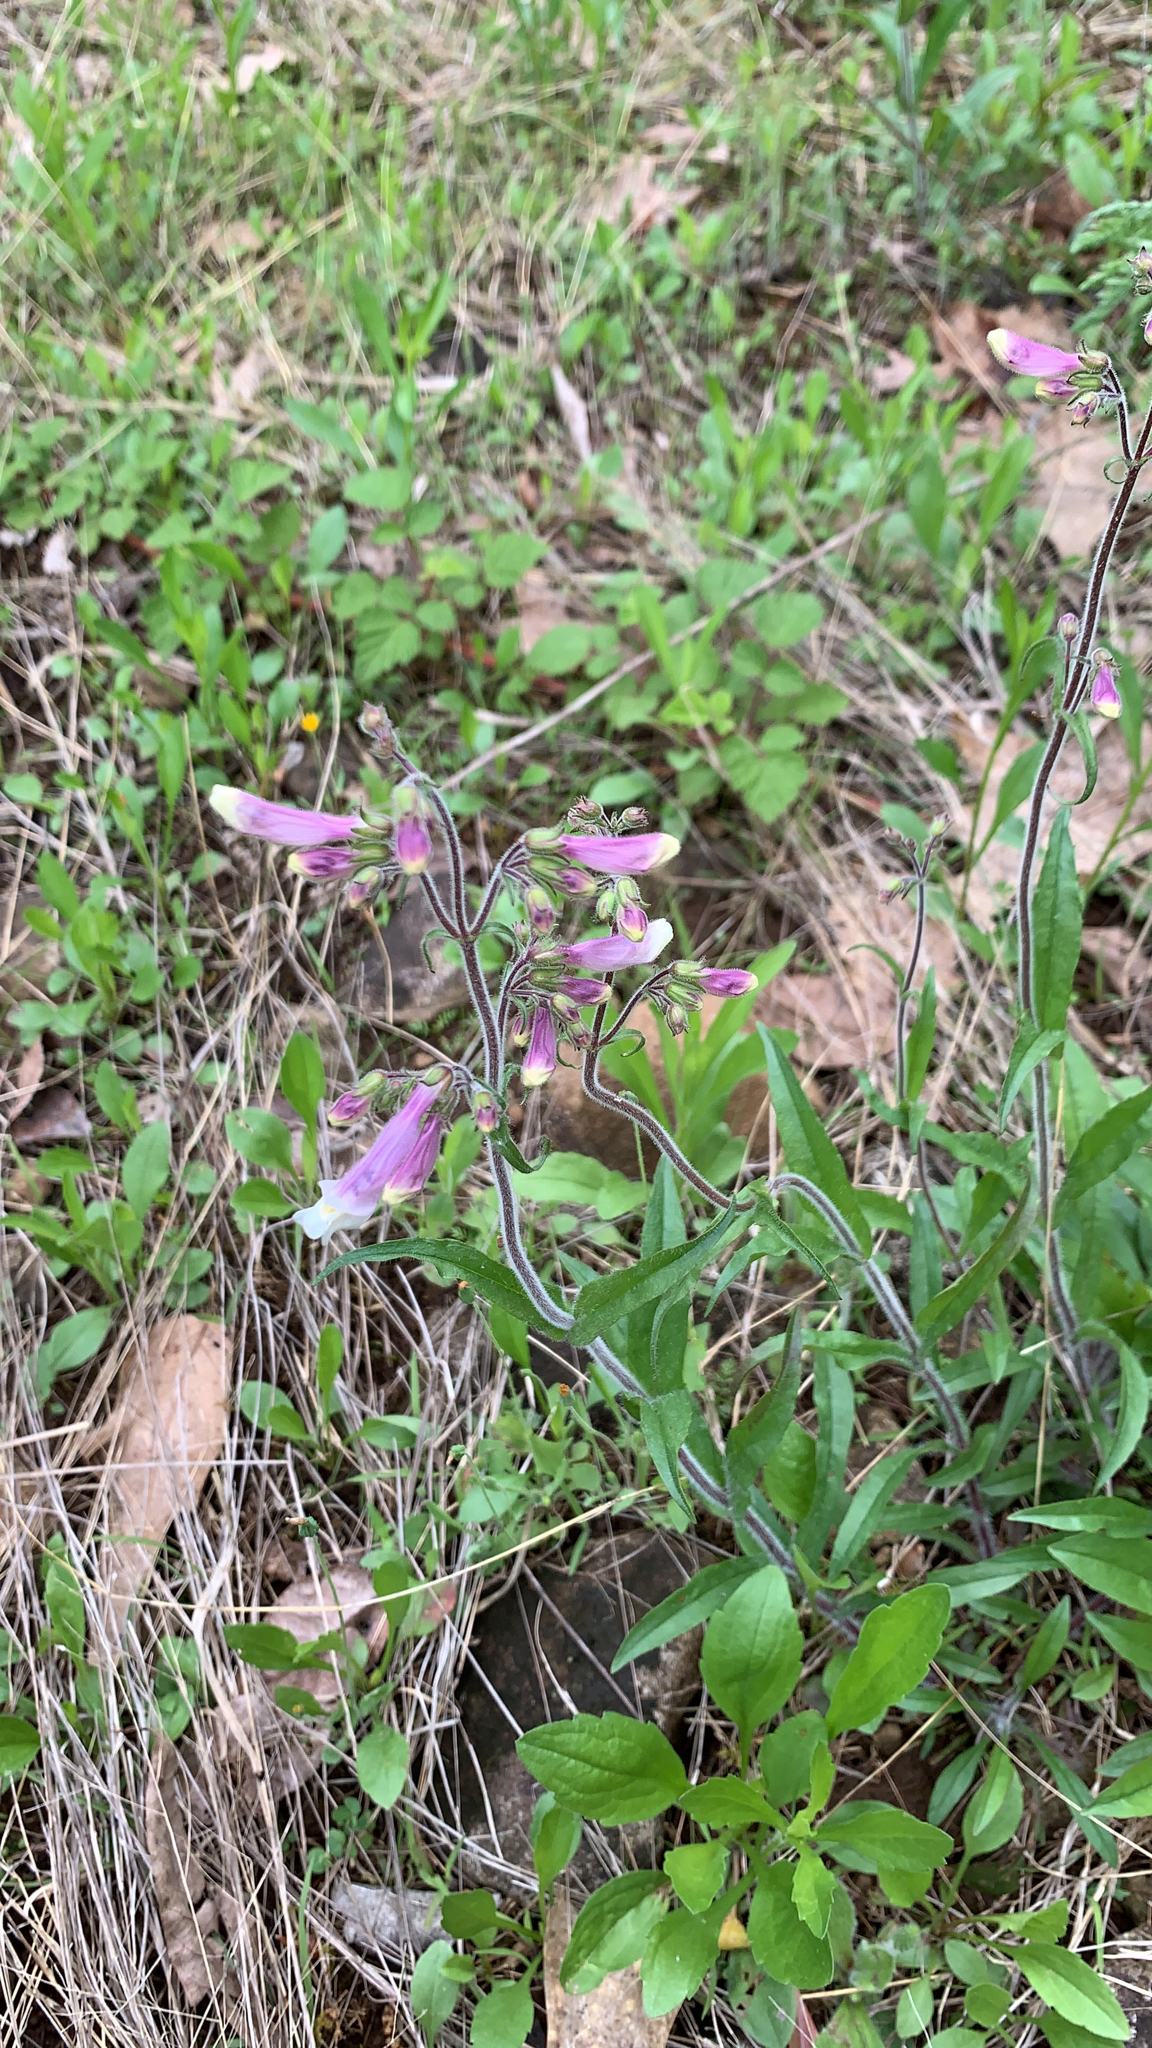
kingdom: Plantae
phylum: Tracheophyta
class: Magnoliopsida
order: Lamiales
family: Plantaginaceae
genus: Penstemon
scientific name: Penstemon hirsutus
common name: Hairy beardtongue
